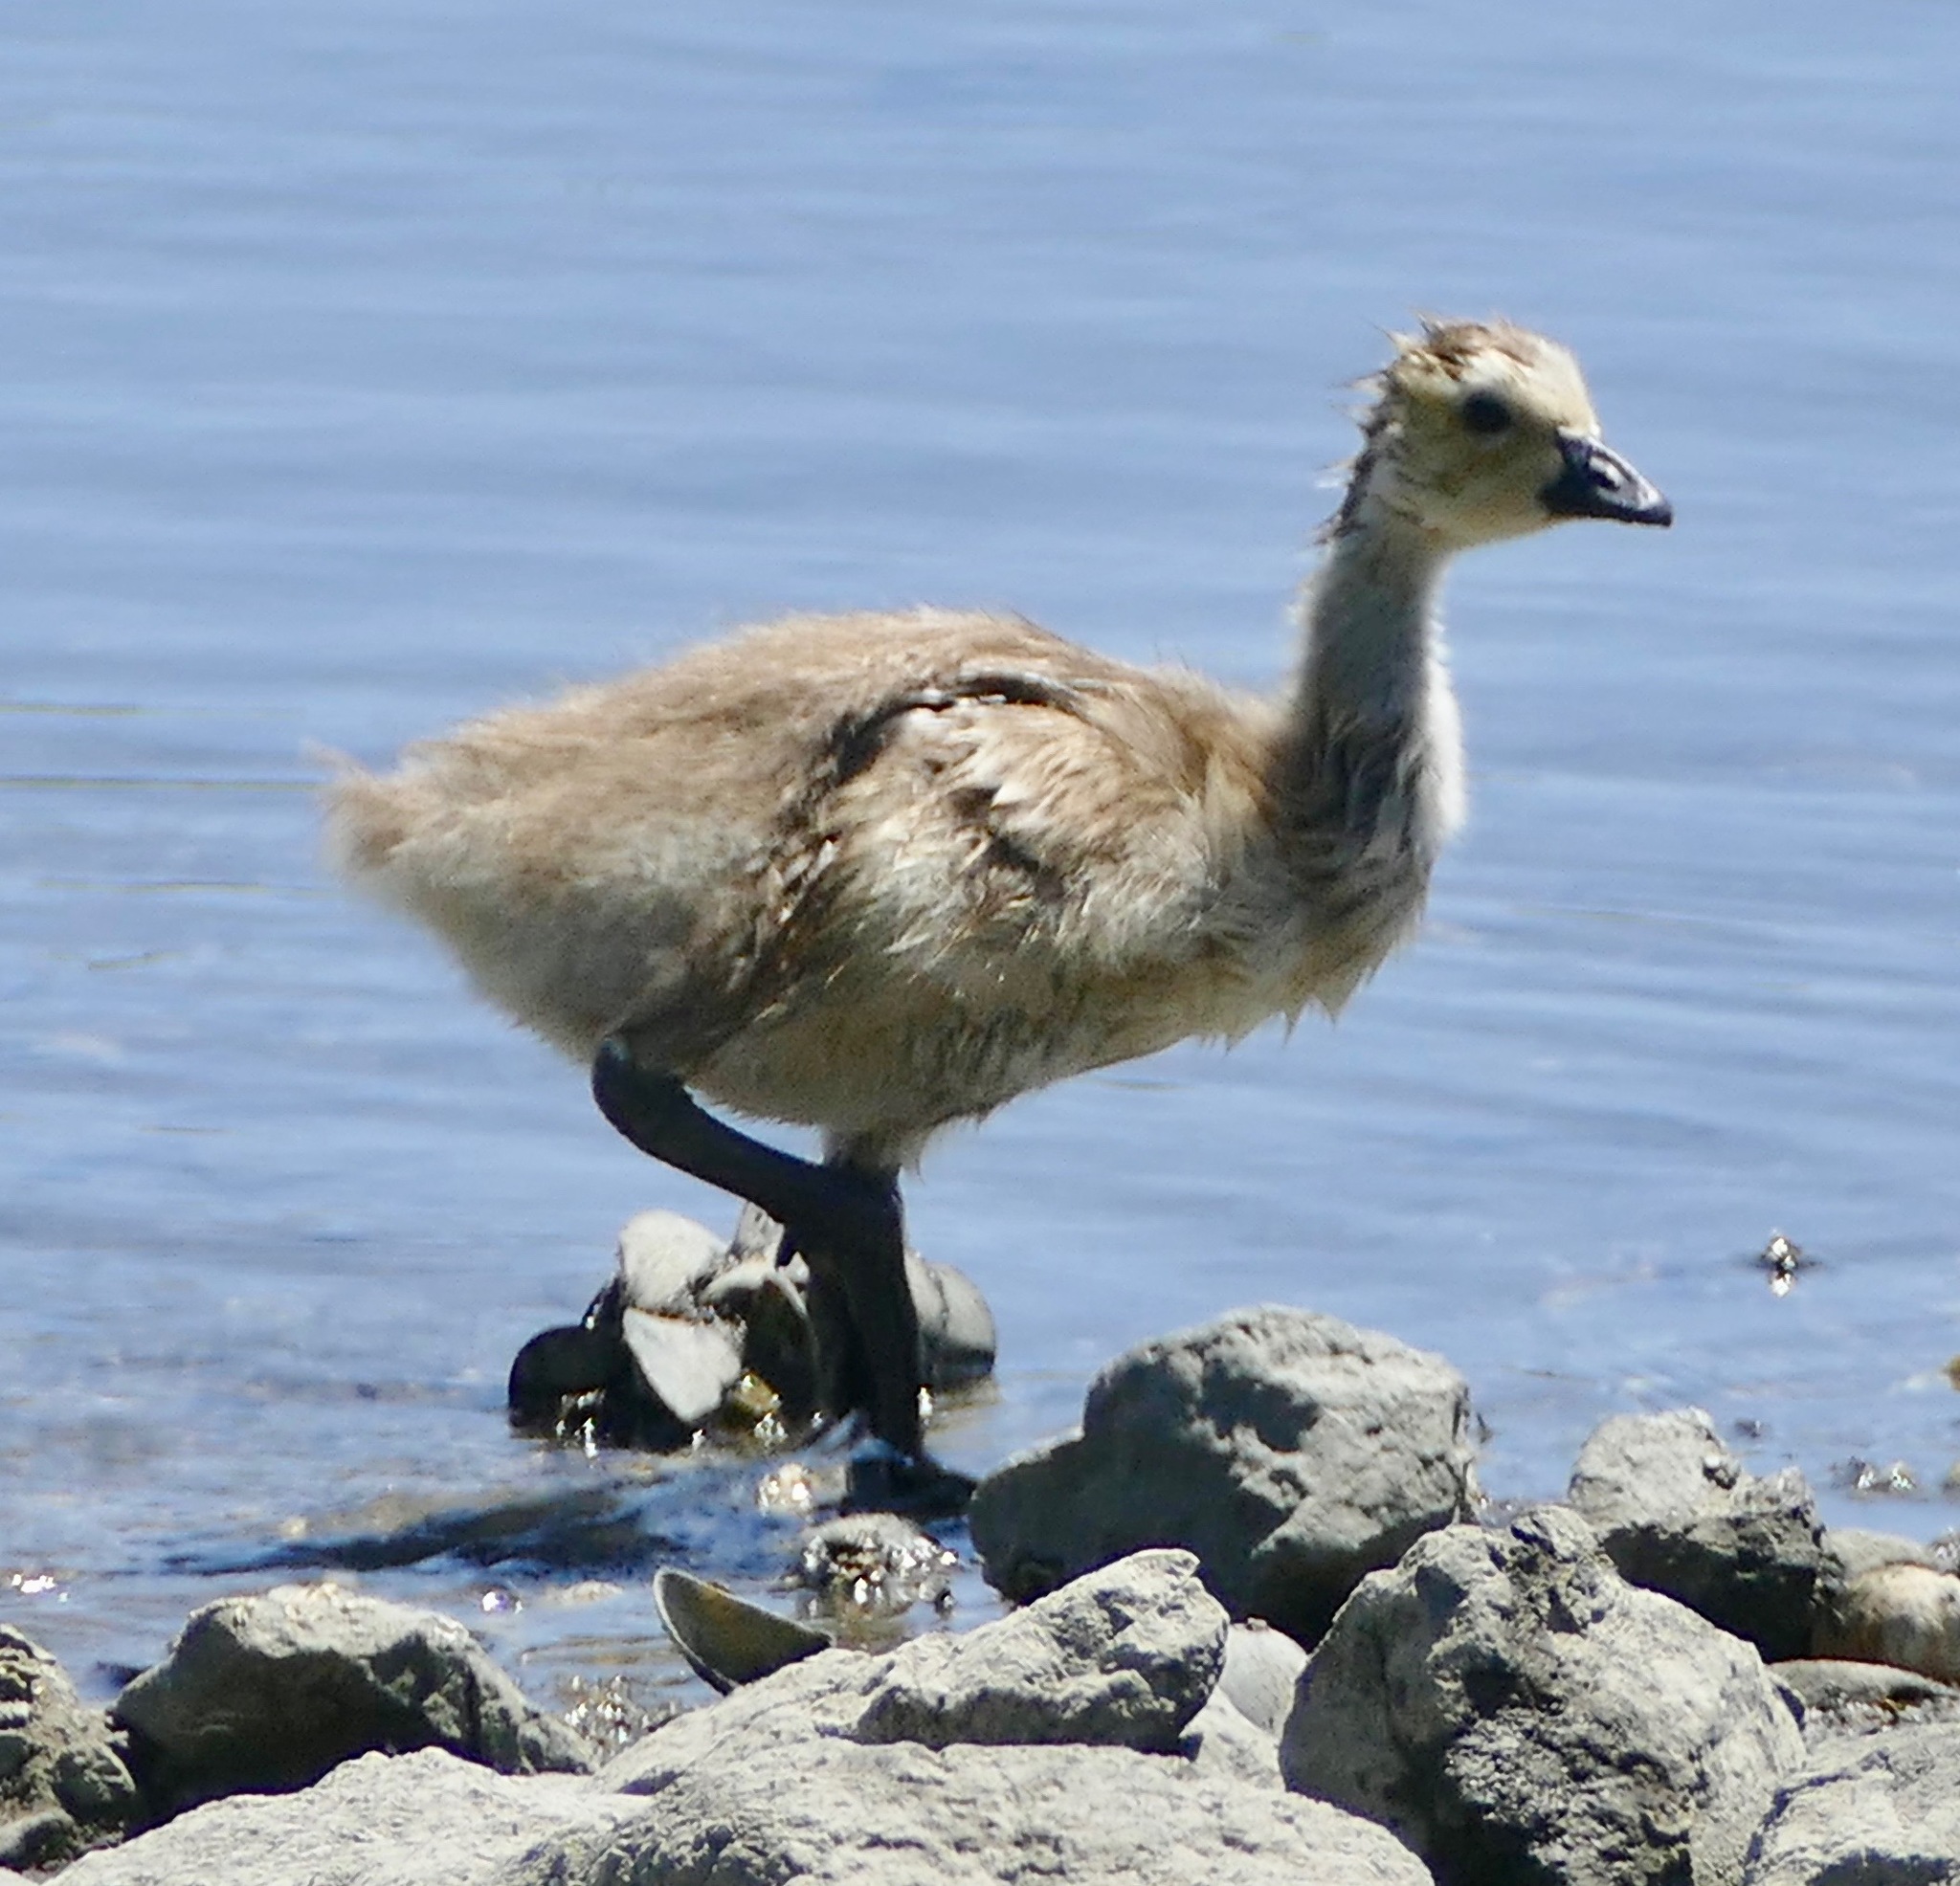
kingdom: Animalia
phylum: Chordata
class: Aves
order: Anseriformes
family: Anatidae
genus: Branta
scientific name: Branta canadensis
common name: Canada goose
